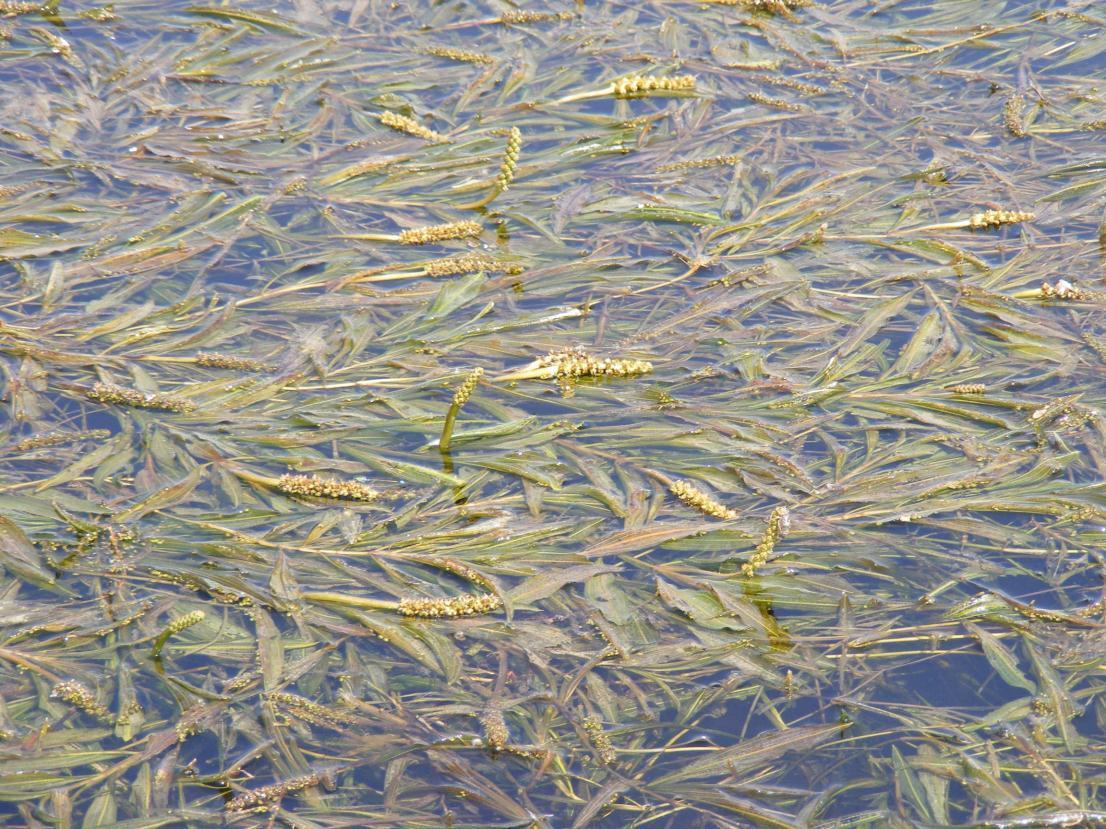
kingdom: Plantae
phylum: Tracheophyta
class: Liliopsida
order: Alismatales
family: Potamogetonaceae
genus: Potamogeton
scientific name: Potamogeton schweinfurthii
